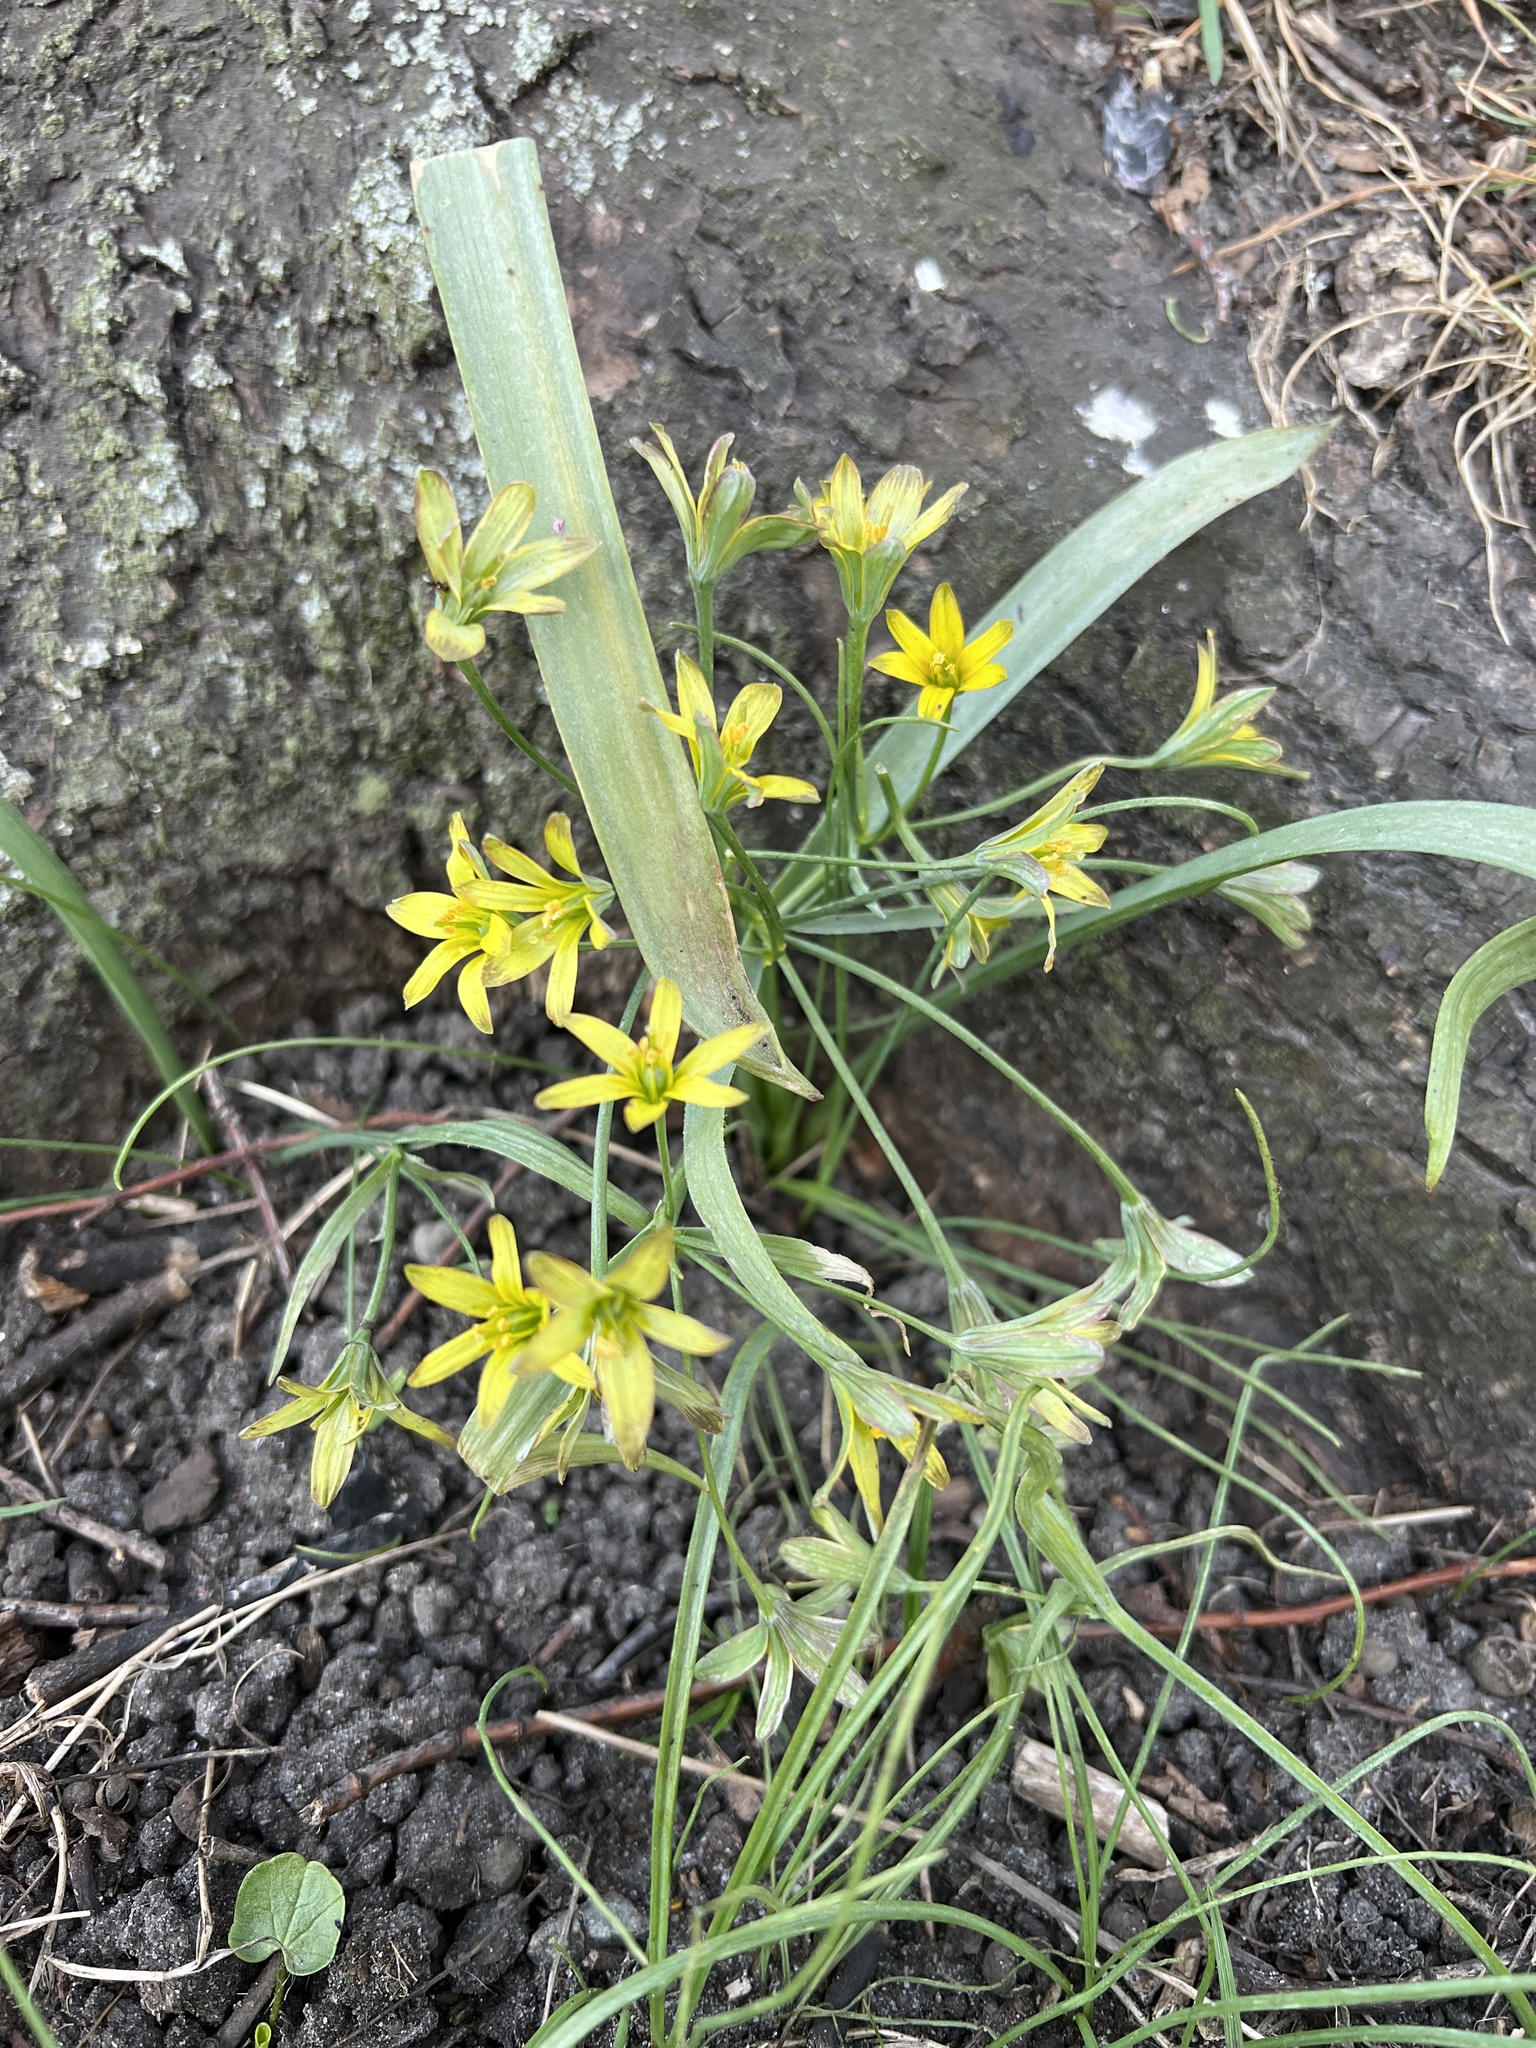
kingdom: Plantae
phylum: Tracheophyta
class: Liliopsida
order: Liliales
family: Liliaceae
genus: Gagea
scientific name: Gagea lutea
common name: Yellow star-of-bethlehem
